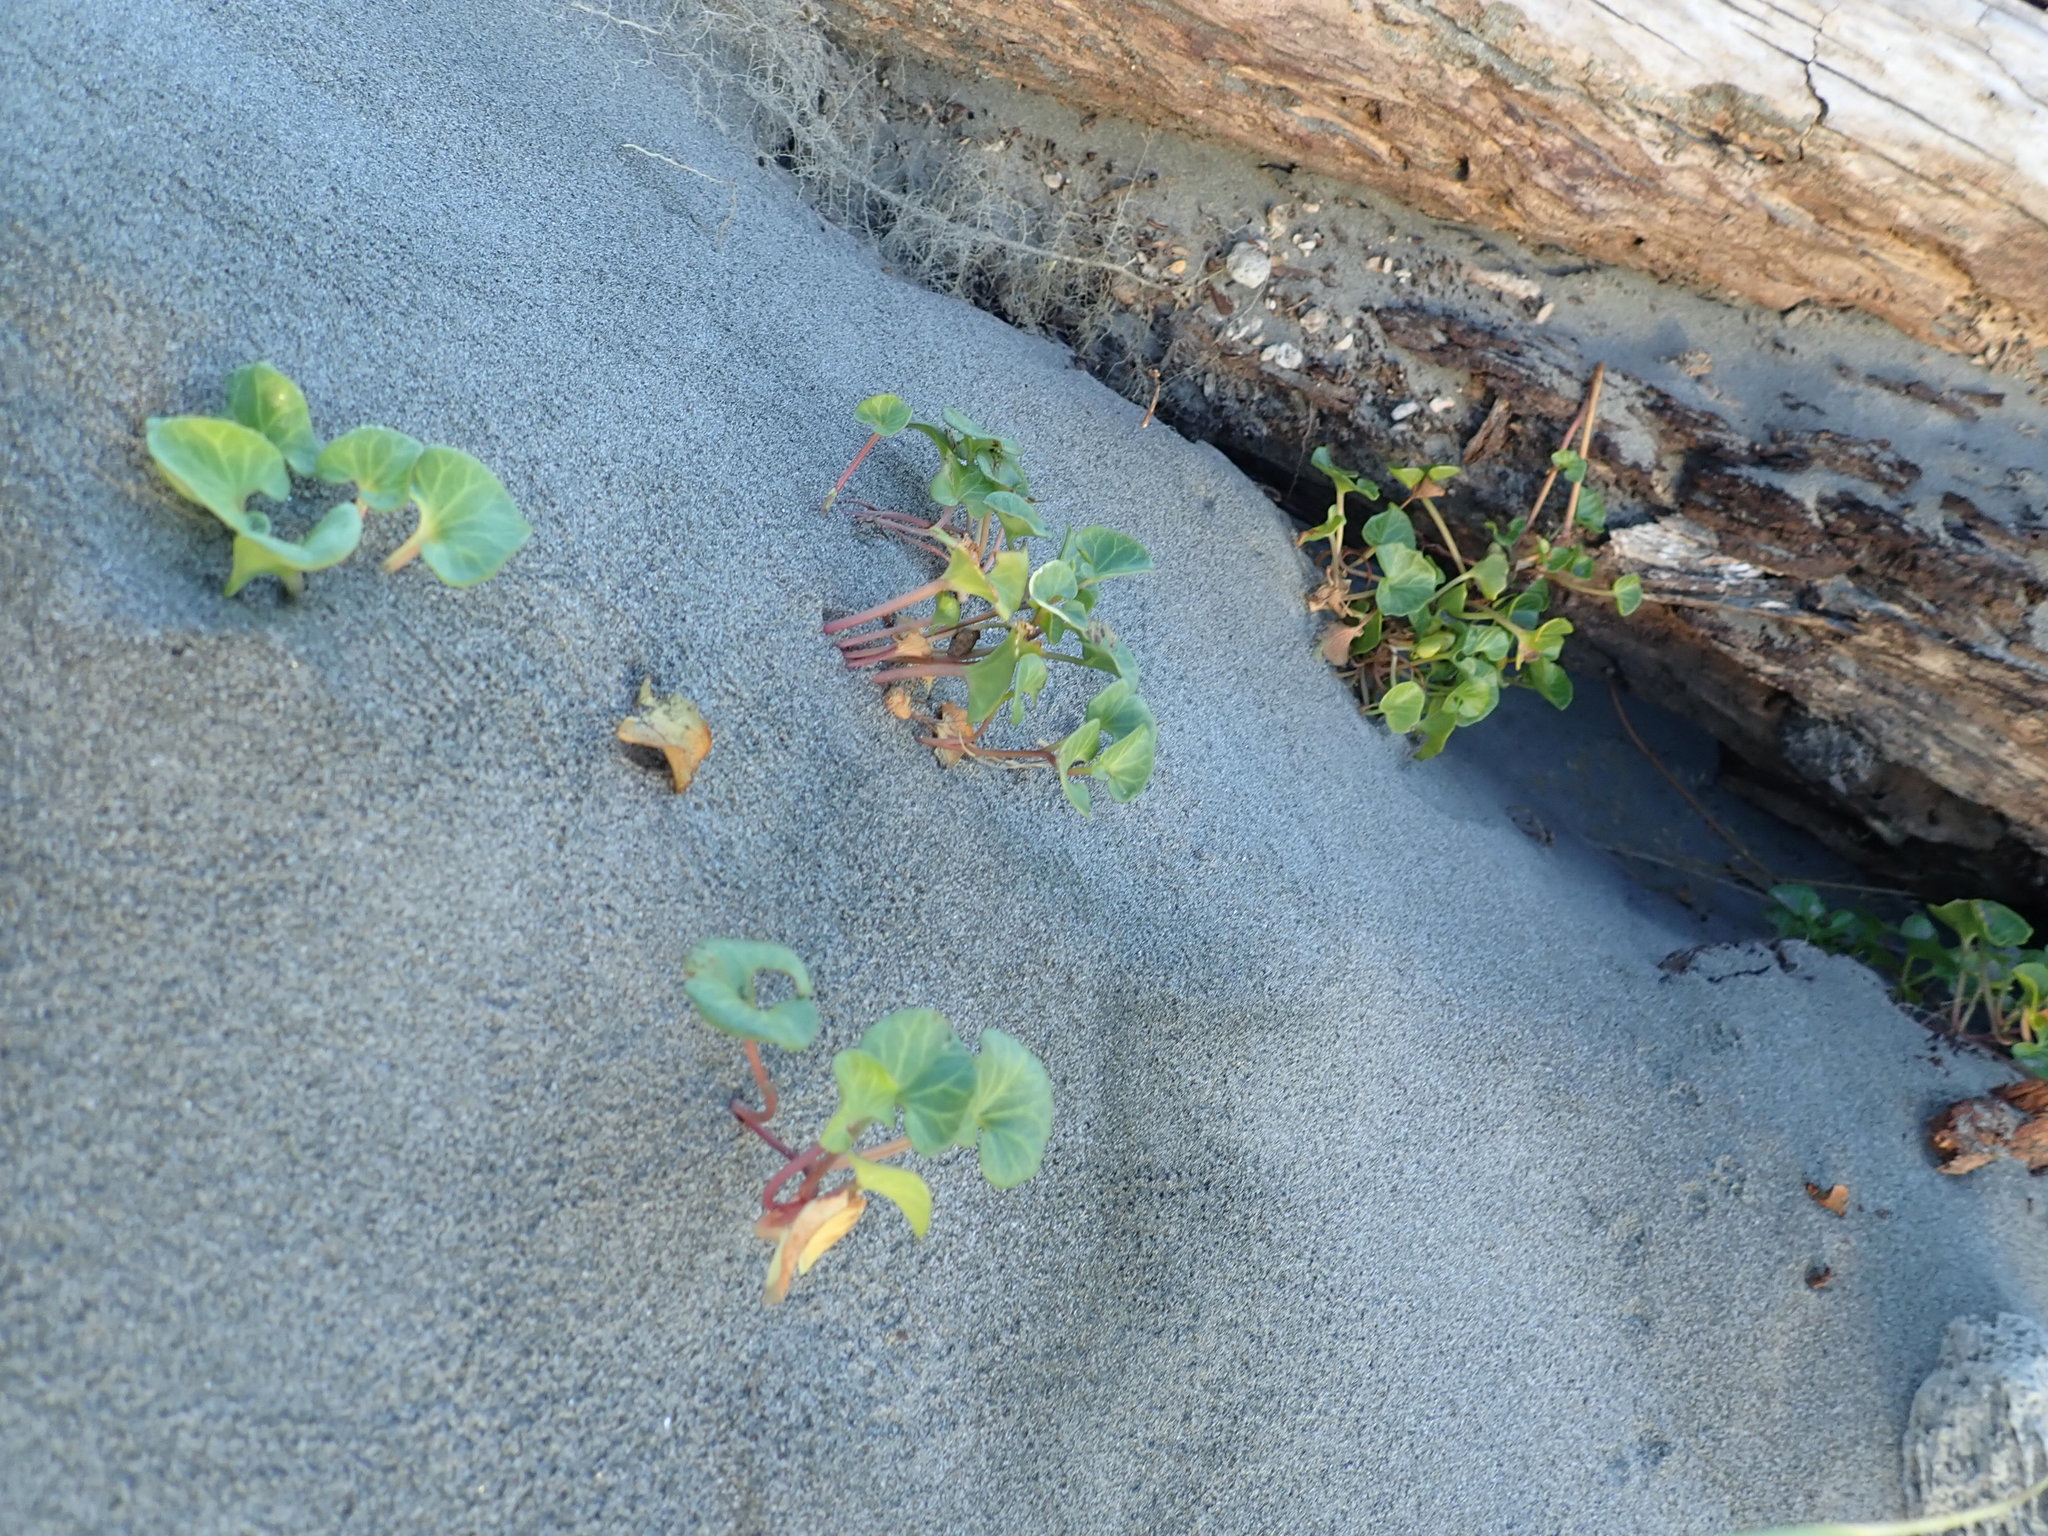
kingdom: Plantae
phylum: Tracheophyta
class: Magnoliopsida
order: Solanales
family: Convolvulaceae
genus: Calystegia
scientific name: Calystegia soldanella
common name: Sea bindweed
